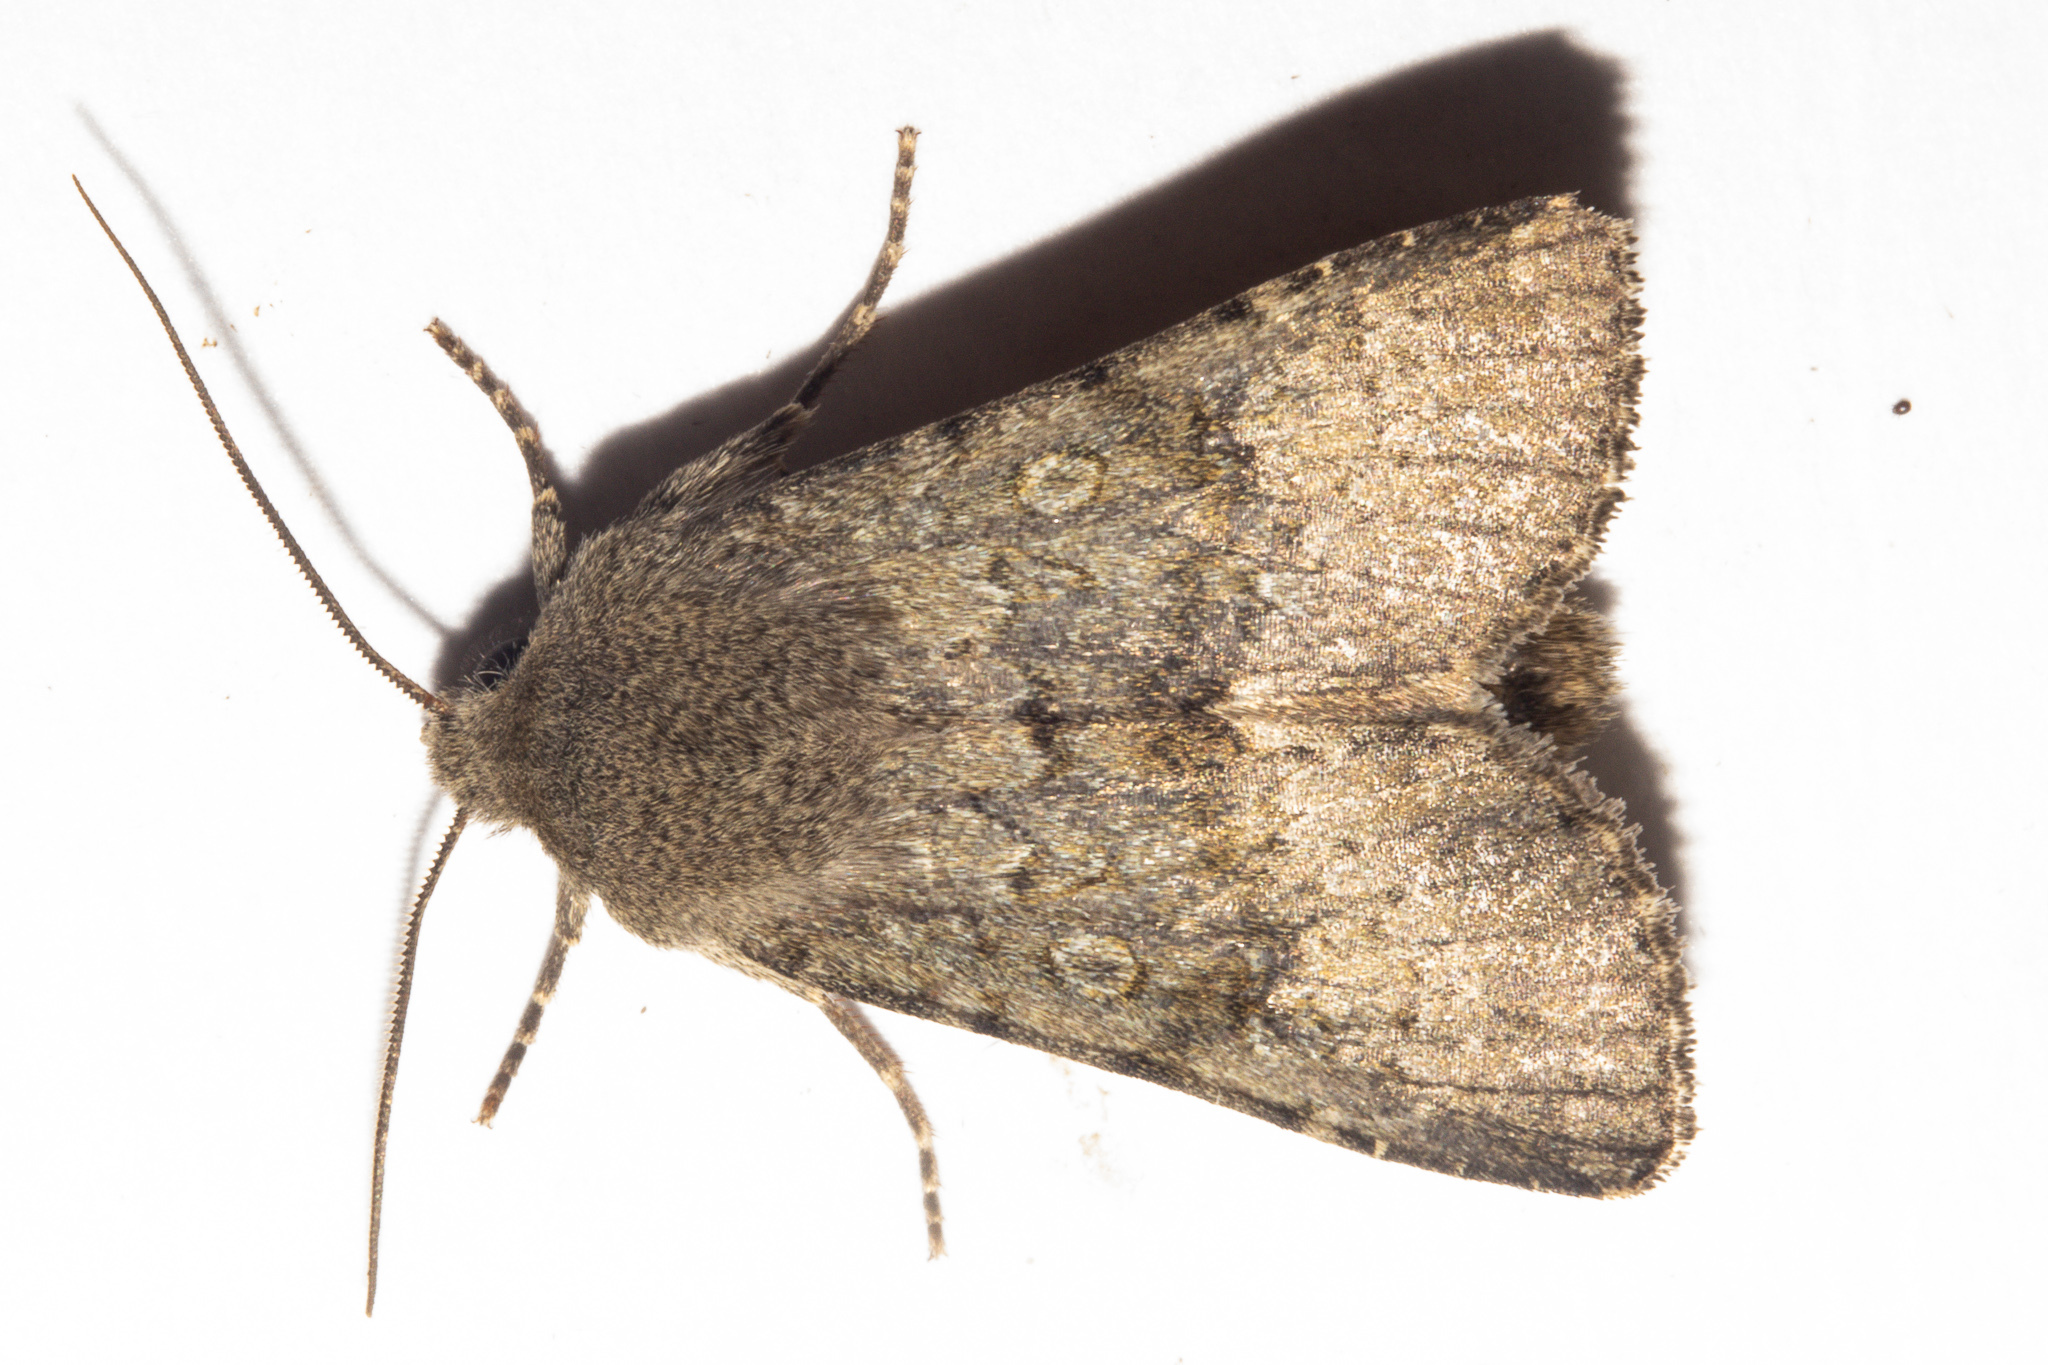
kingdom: Animalia
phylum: Arthropoda
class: Insecta
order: Lepidoptera
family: Noctuidae
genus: Ichneutica
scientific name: Ichneutica moderata
